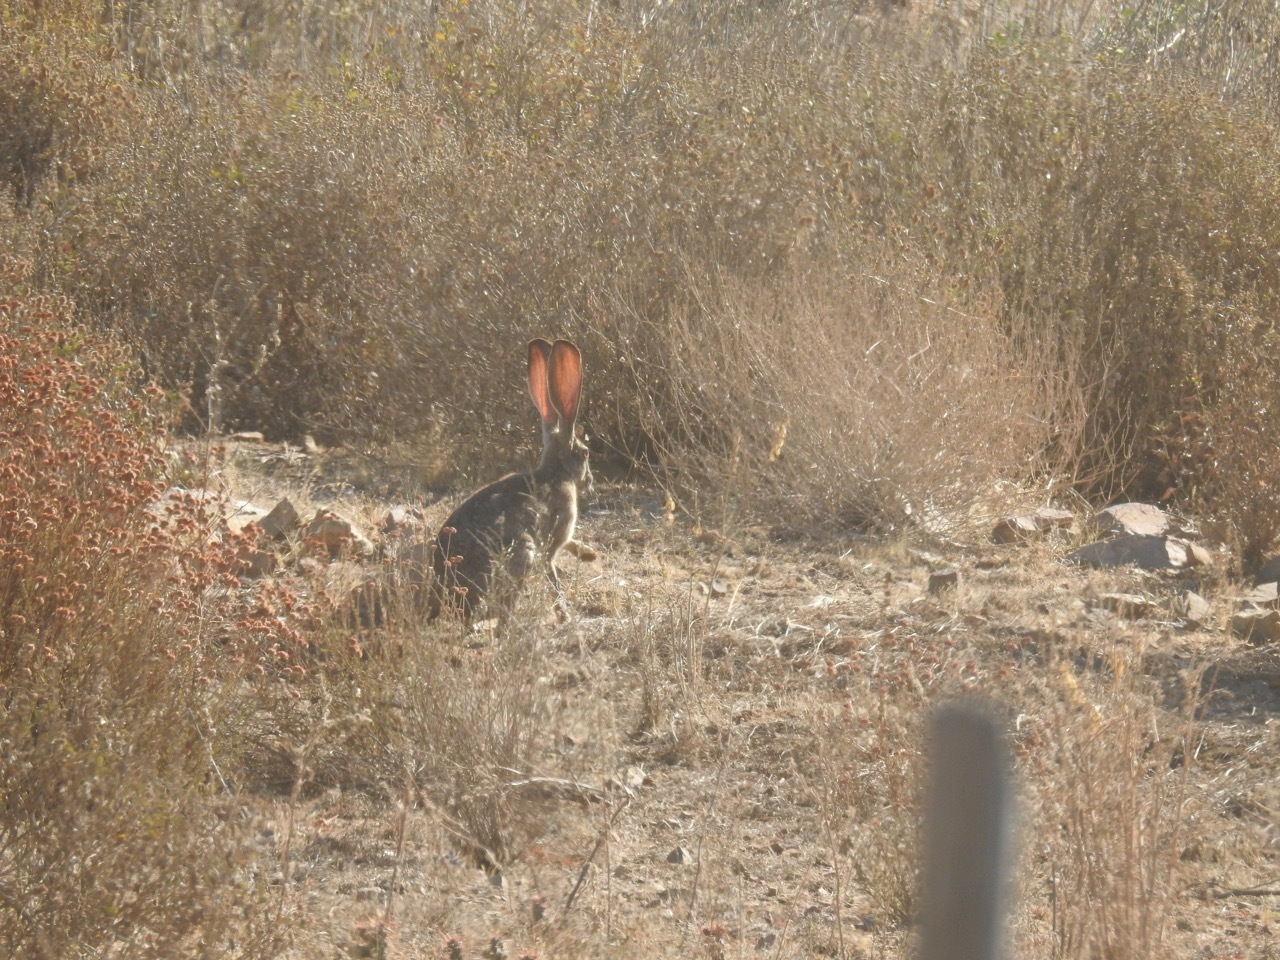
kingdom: Animalia
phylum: Chordata
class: Mammalia
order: Lagomorpha
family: Leporidae
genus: Lepus
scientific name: Lepus californicus
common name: Black-tailed jackrabbit
